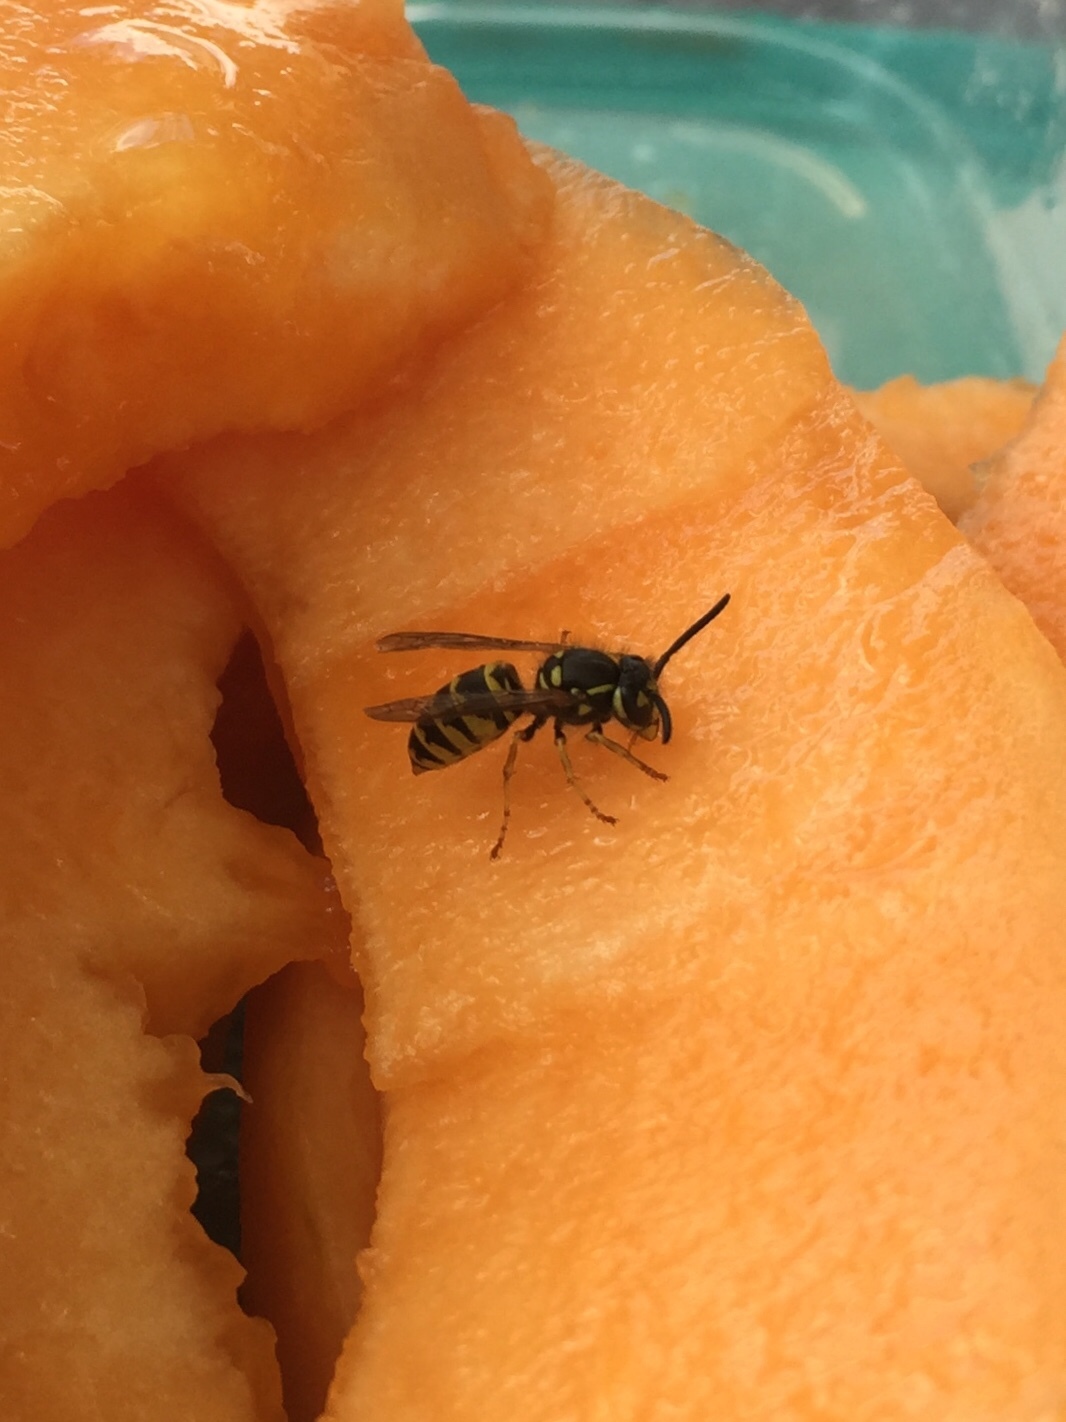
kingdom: Animalia
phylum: Arthropoda
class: Insecta
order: Hymenoptera
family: Vespidae
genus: Vespula
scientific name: Vespula vulgaris
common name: Common wasp
